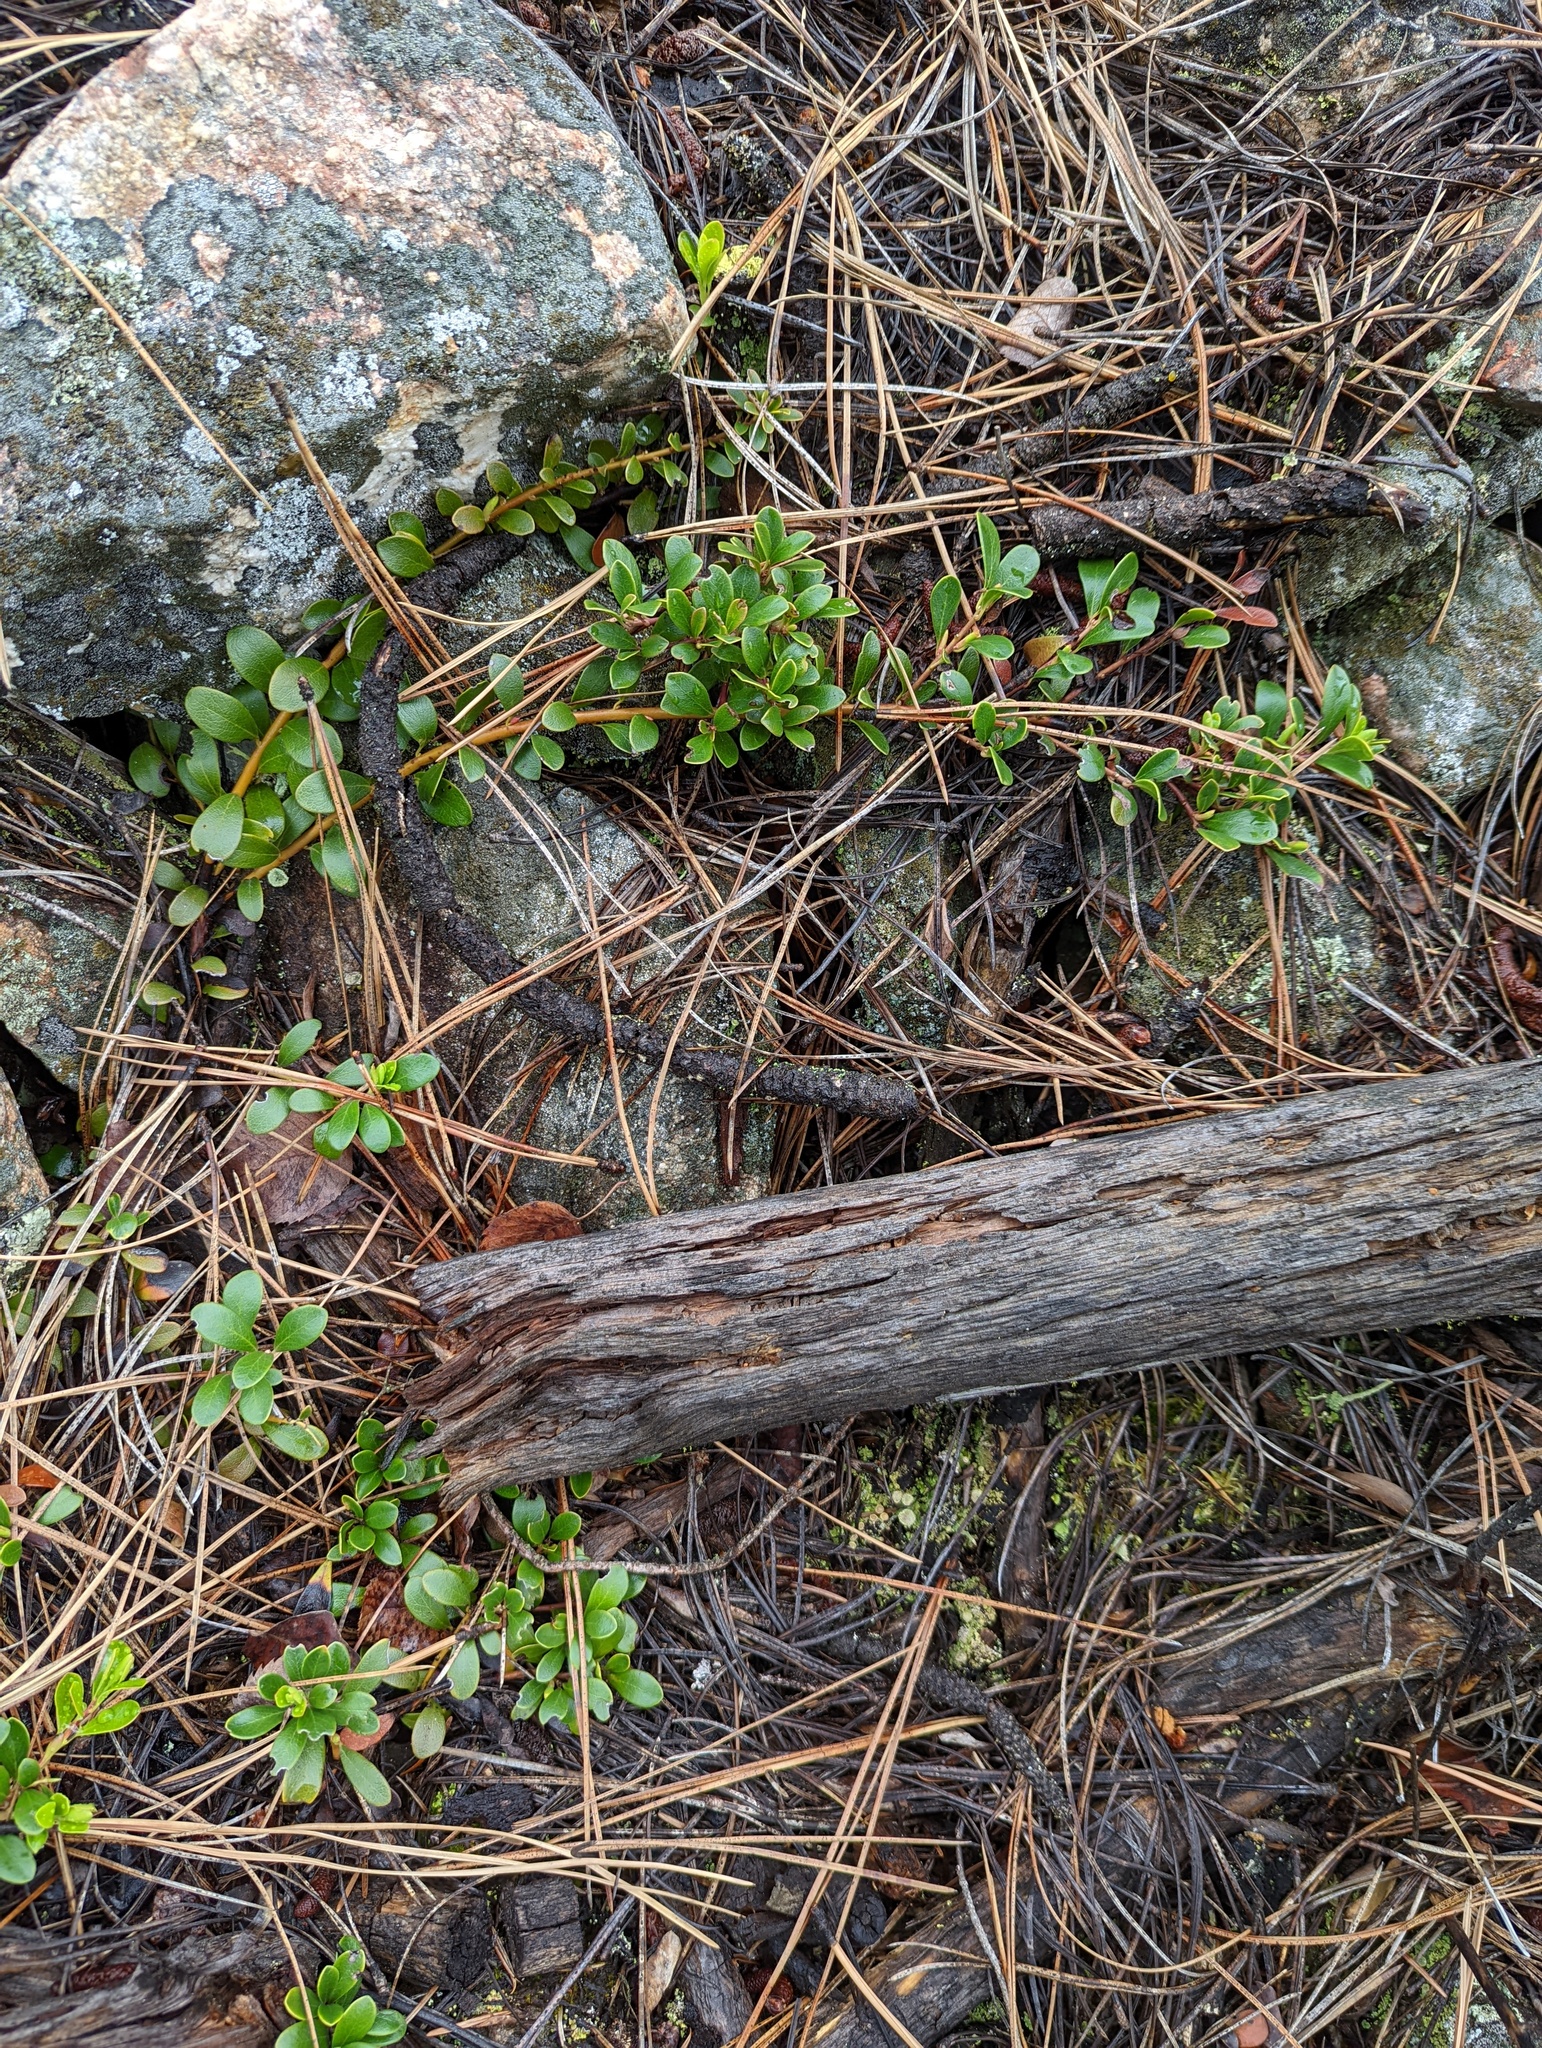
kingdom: Plantae
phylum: Tracheophyta
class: Magnoliopsida
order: Ericales
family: Ericaceae
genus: Arctostaphylos
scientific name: Arctostaphylos uva-ursi
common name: Bearberry
